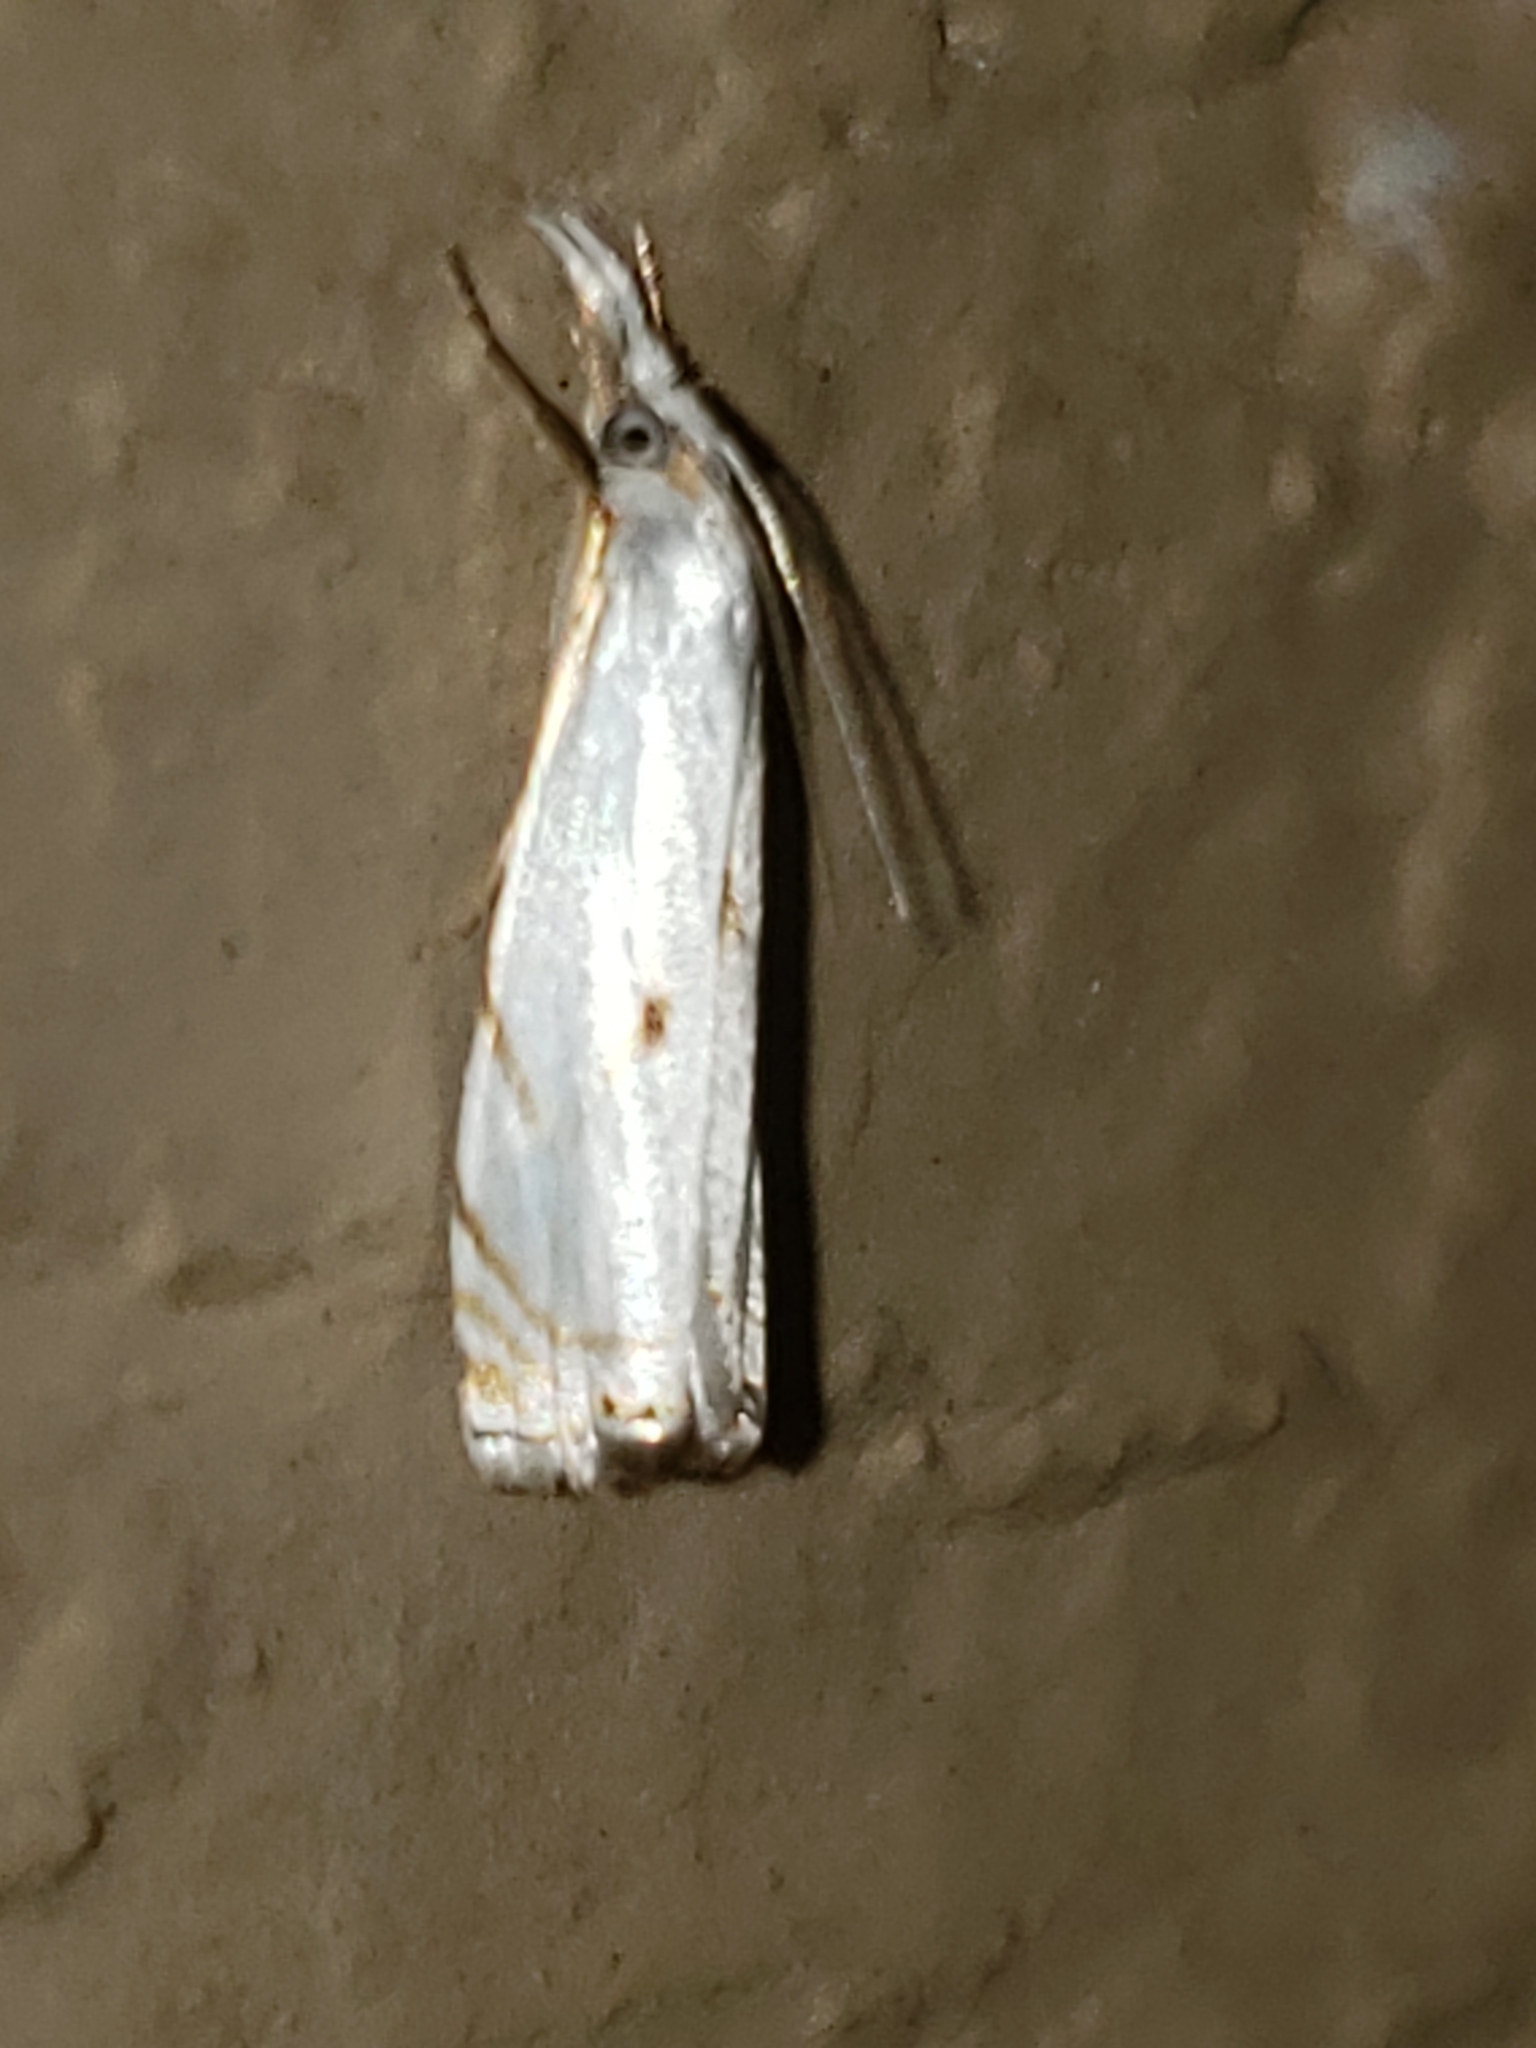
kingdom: Animalia
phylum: Arthropoda
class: Insecta
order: Lepidoptera
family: Crambidae
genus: Microcrambus
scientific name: Microcrambus biguttellus
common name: Gold-stripe grass-veneer moth
